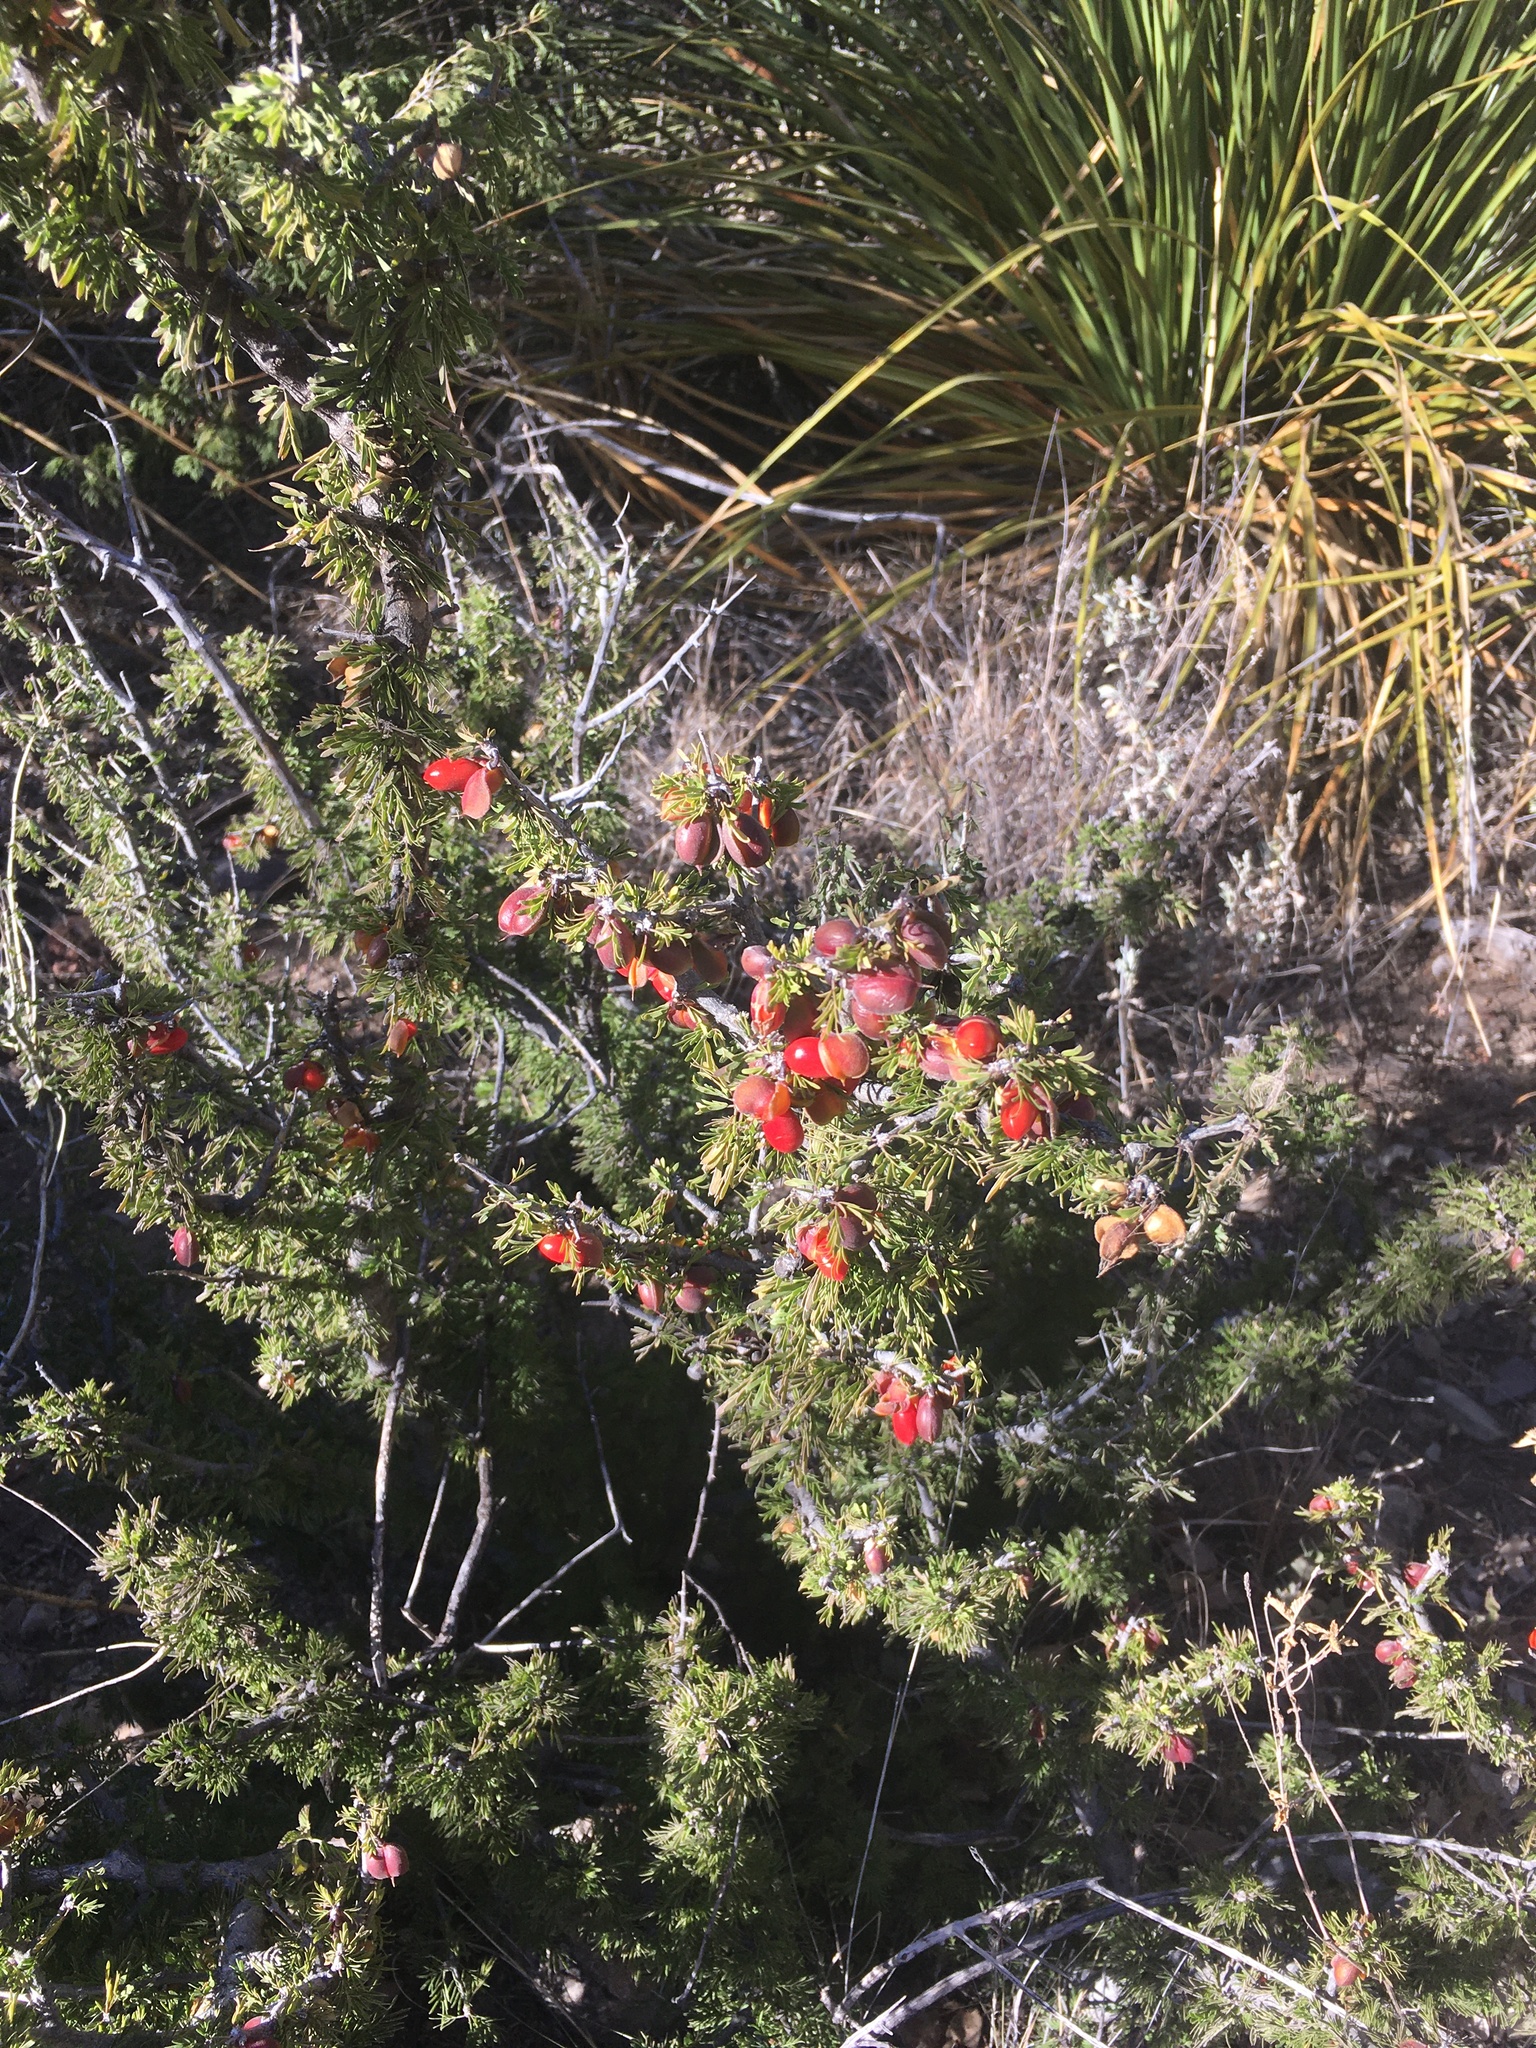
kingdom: Plantae
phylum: Tracheophyta
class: Magnoliopsida
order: Zygophyllales
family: Zygophyllaceae
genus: Porlieria
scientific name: Porlieria angustifolia
